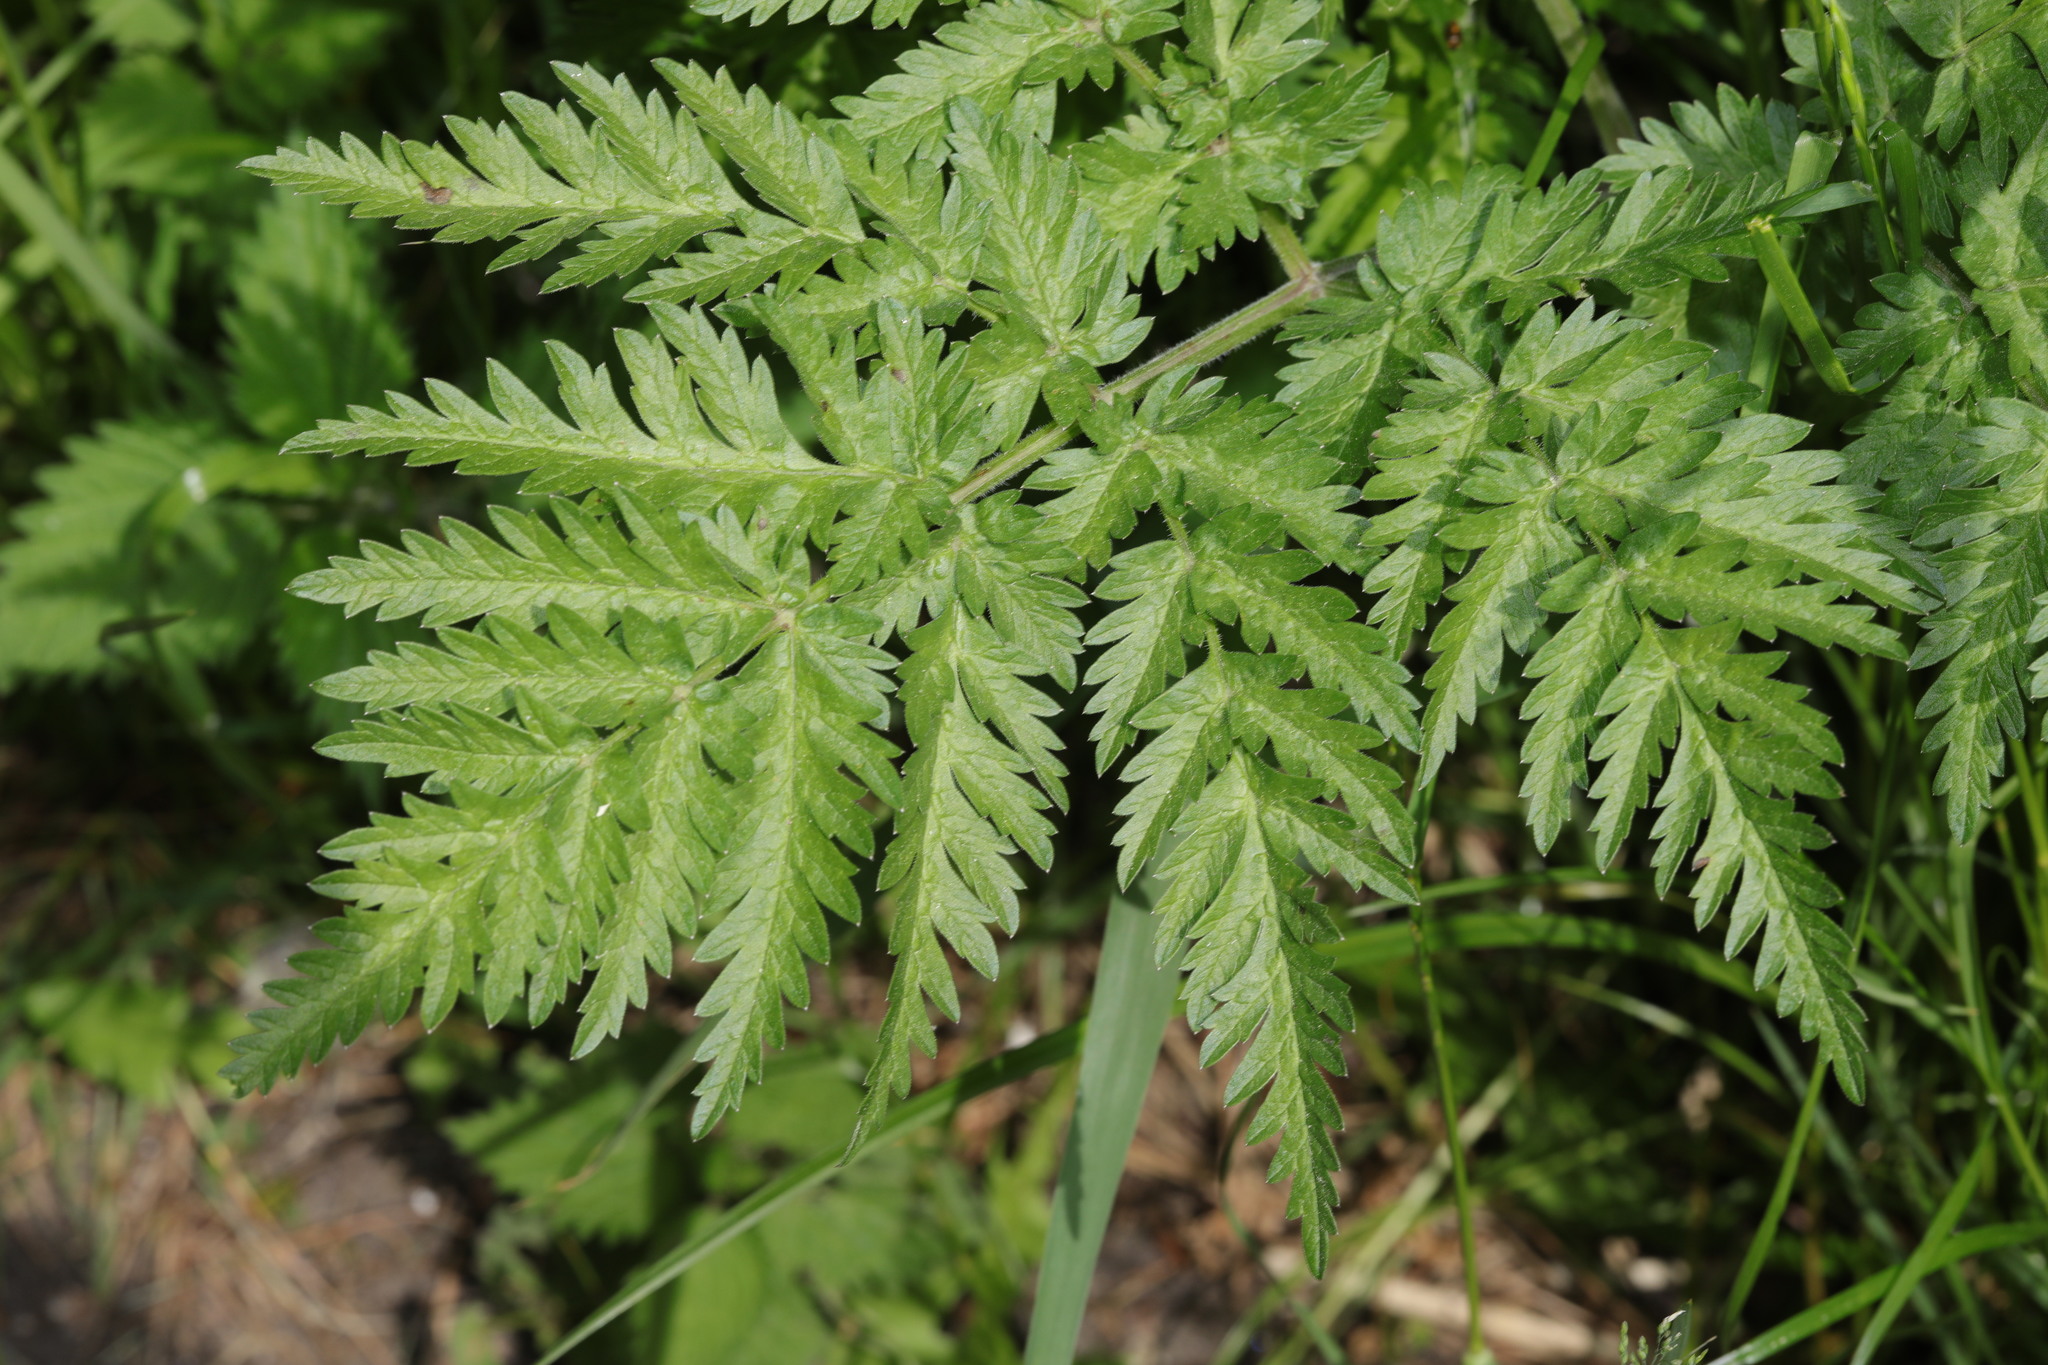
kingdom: Plantae
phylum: Tracheophyta
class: Magnoliopsida
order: Apiales
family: Apiaceae
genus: Anthriscus
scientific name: Anthriscus sylvestris
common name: Cow parsley
